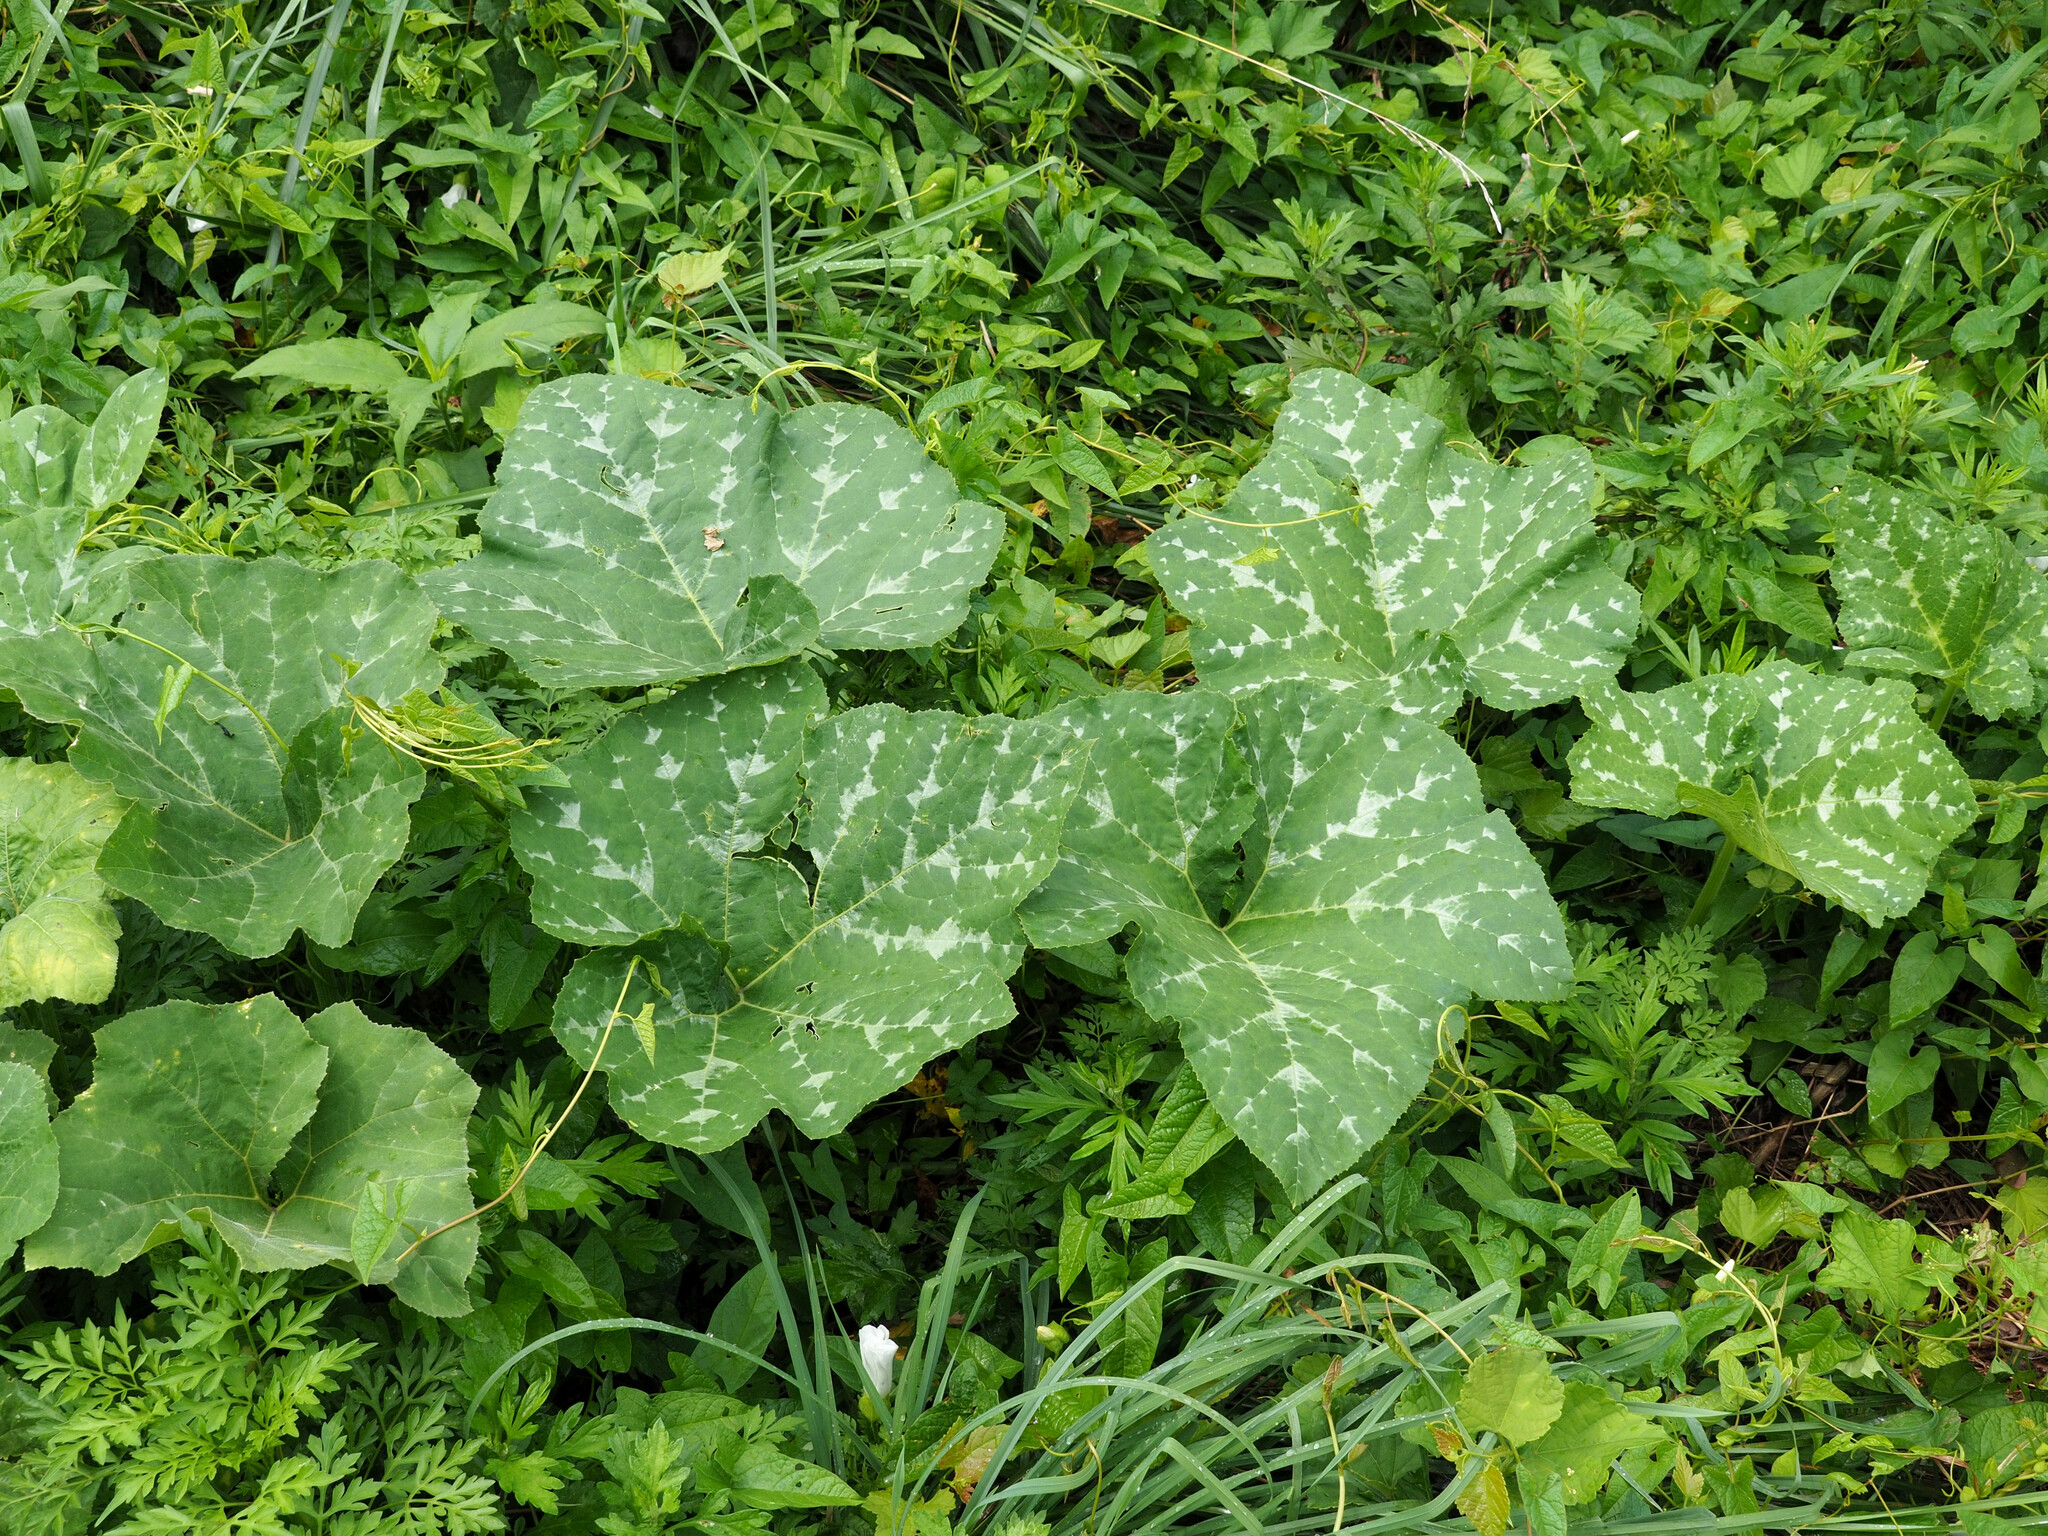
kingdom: Plantae
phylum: Tracheophyta
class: Magnoliopsida
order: Cucurbitales
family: Cucurbitaceae
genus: Cucurbita
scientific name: Cucurbita moschata
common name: Squash / pumpkin
